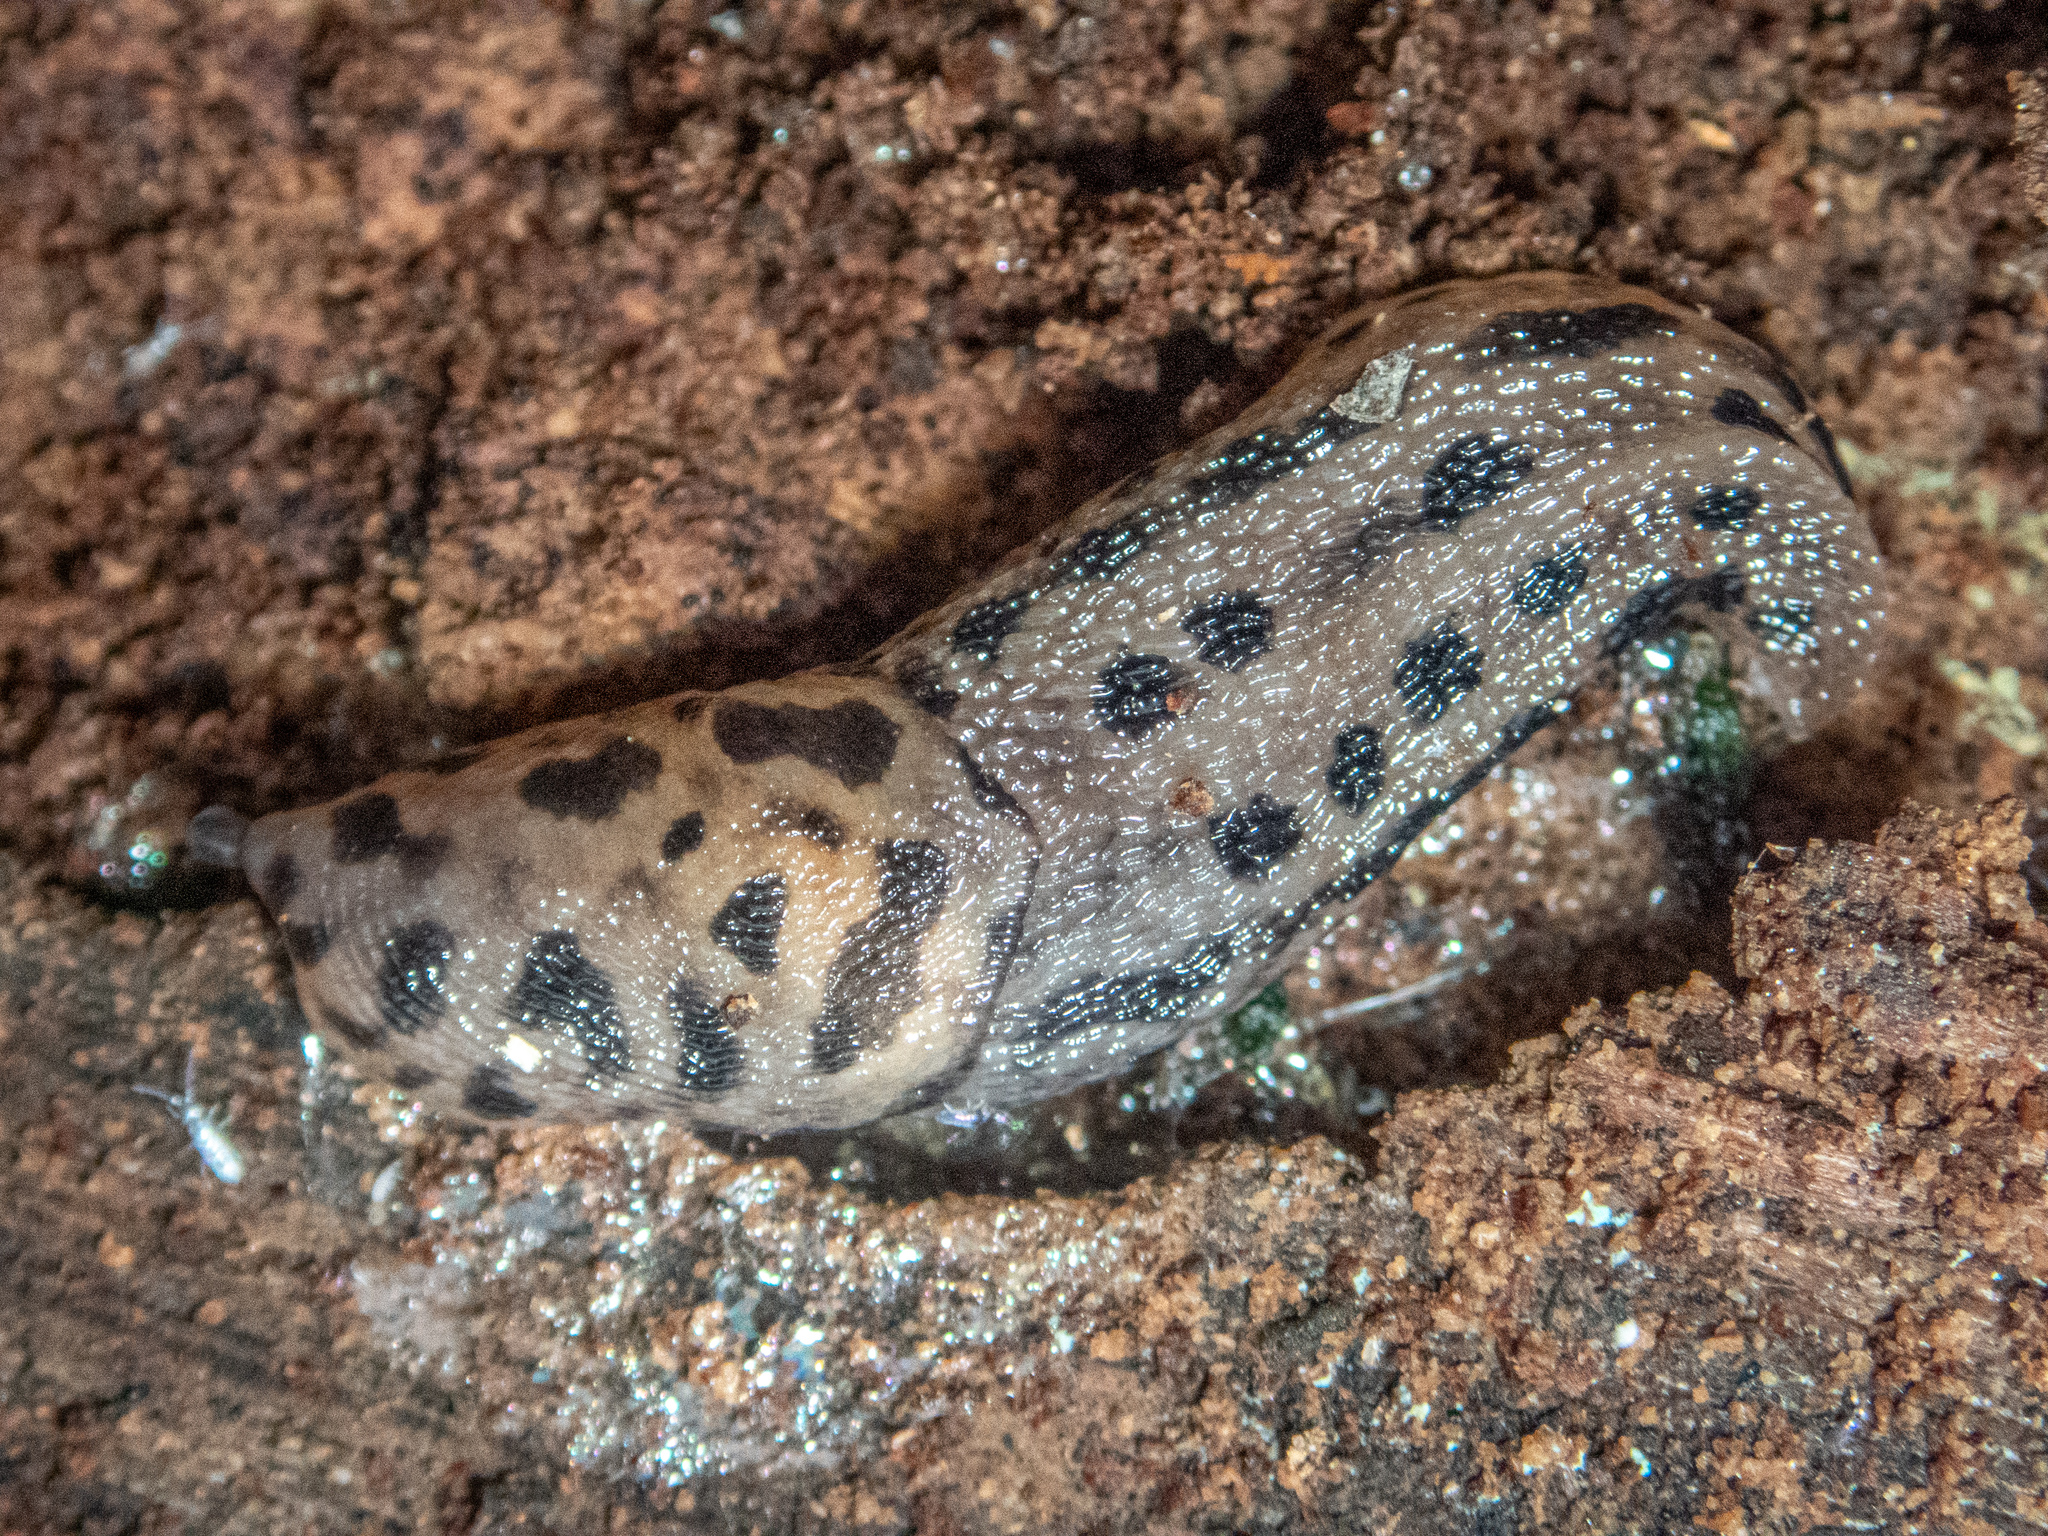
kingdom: Animalia
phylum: Mollusca
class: Gastropoda
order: Stylommatophora
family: Limacidae
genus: Limax
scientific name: Limax maximus
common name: Great grey slug
